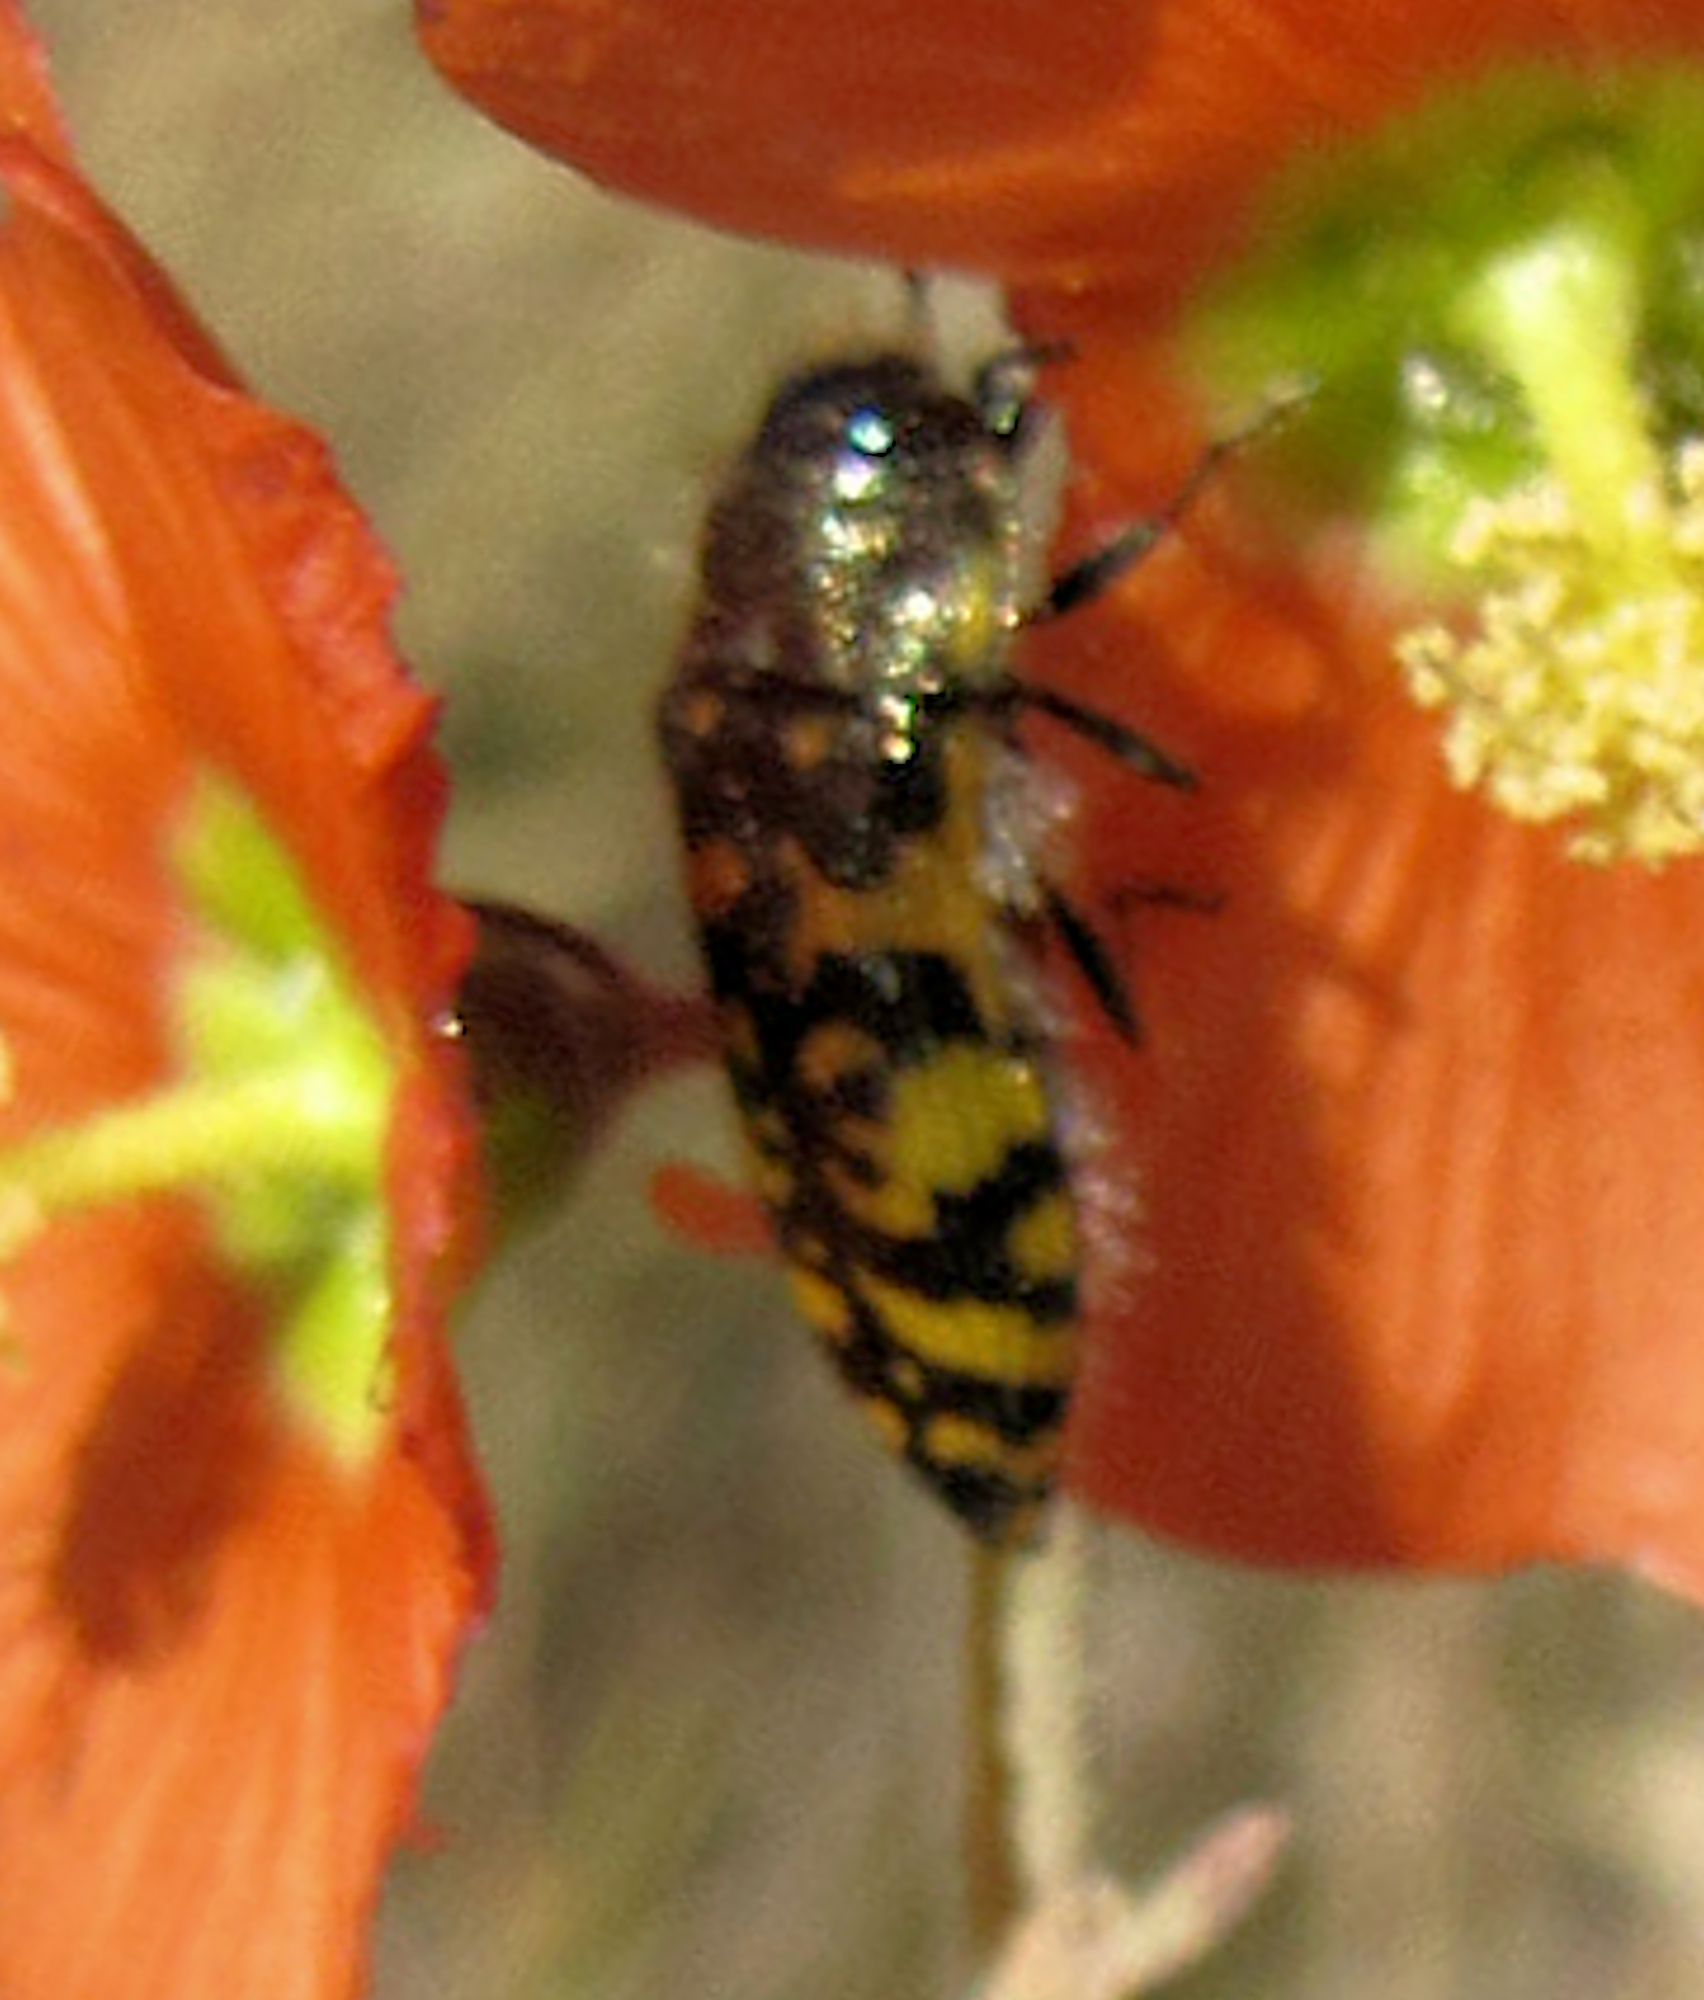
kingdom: Animalia
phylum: Arthropoda
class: Insecta
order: Coleoptera
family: Buprestidae
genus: Acmaeodera
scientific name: Acmaeodera decipiens
